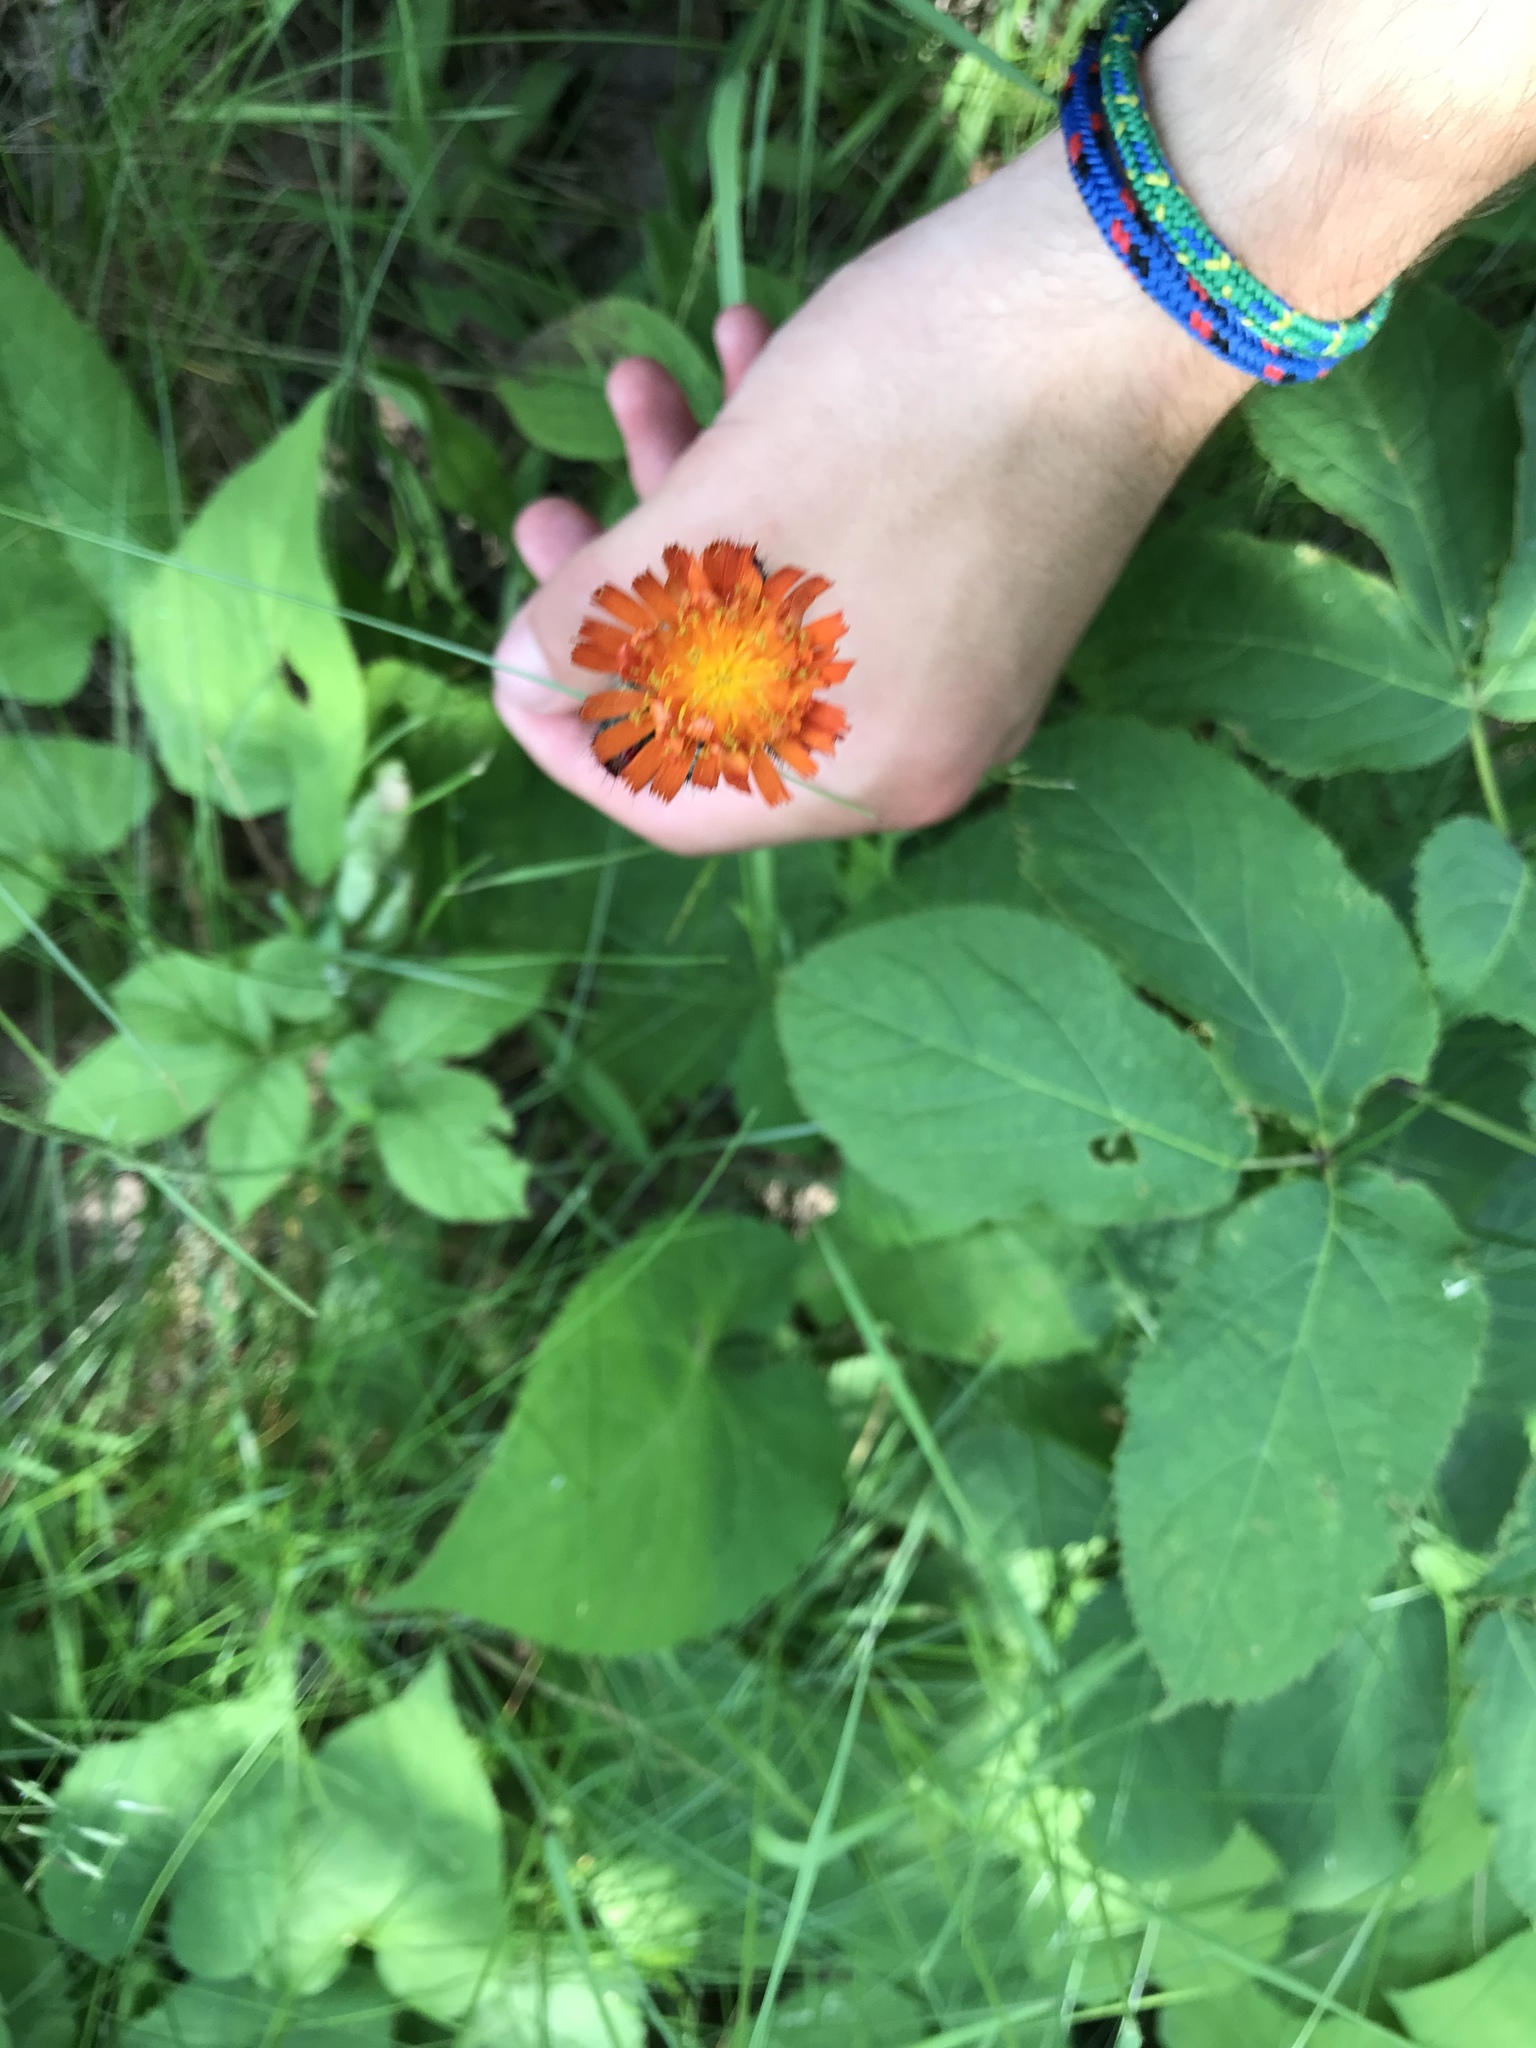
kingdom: Plantae
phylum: Tracheophyta
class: Magnoliopsida
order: Asterales
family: Asteraceae
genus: Pilosella
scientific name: Pilosella aurantiaca
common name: Fox-and-cubs
